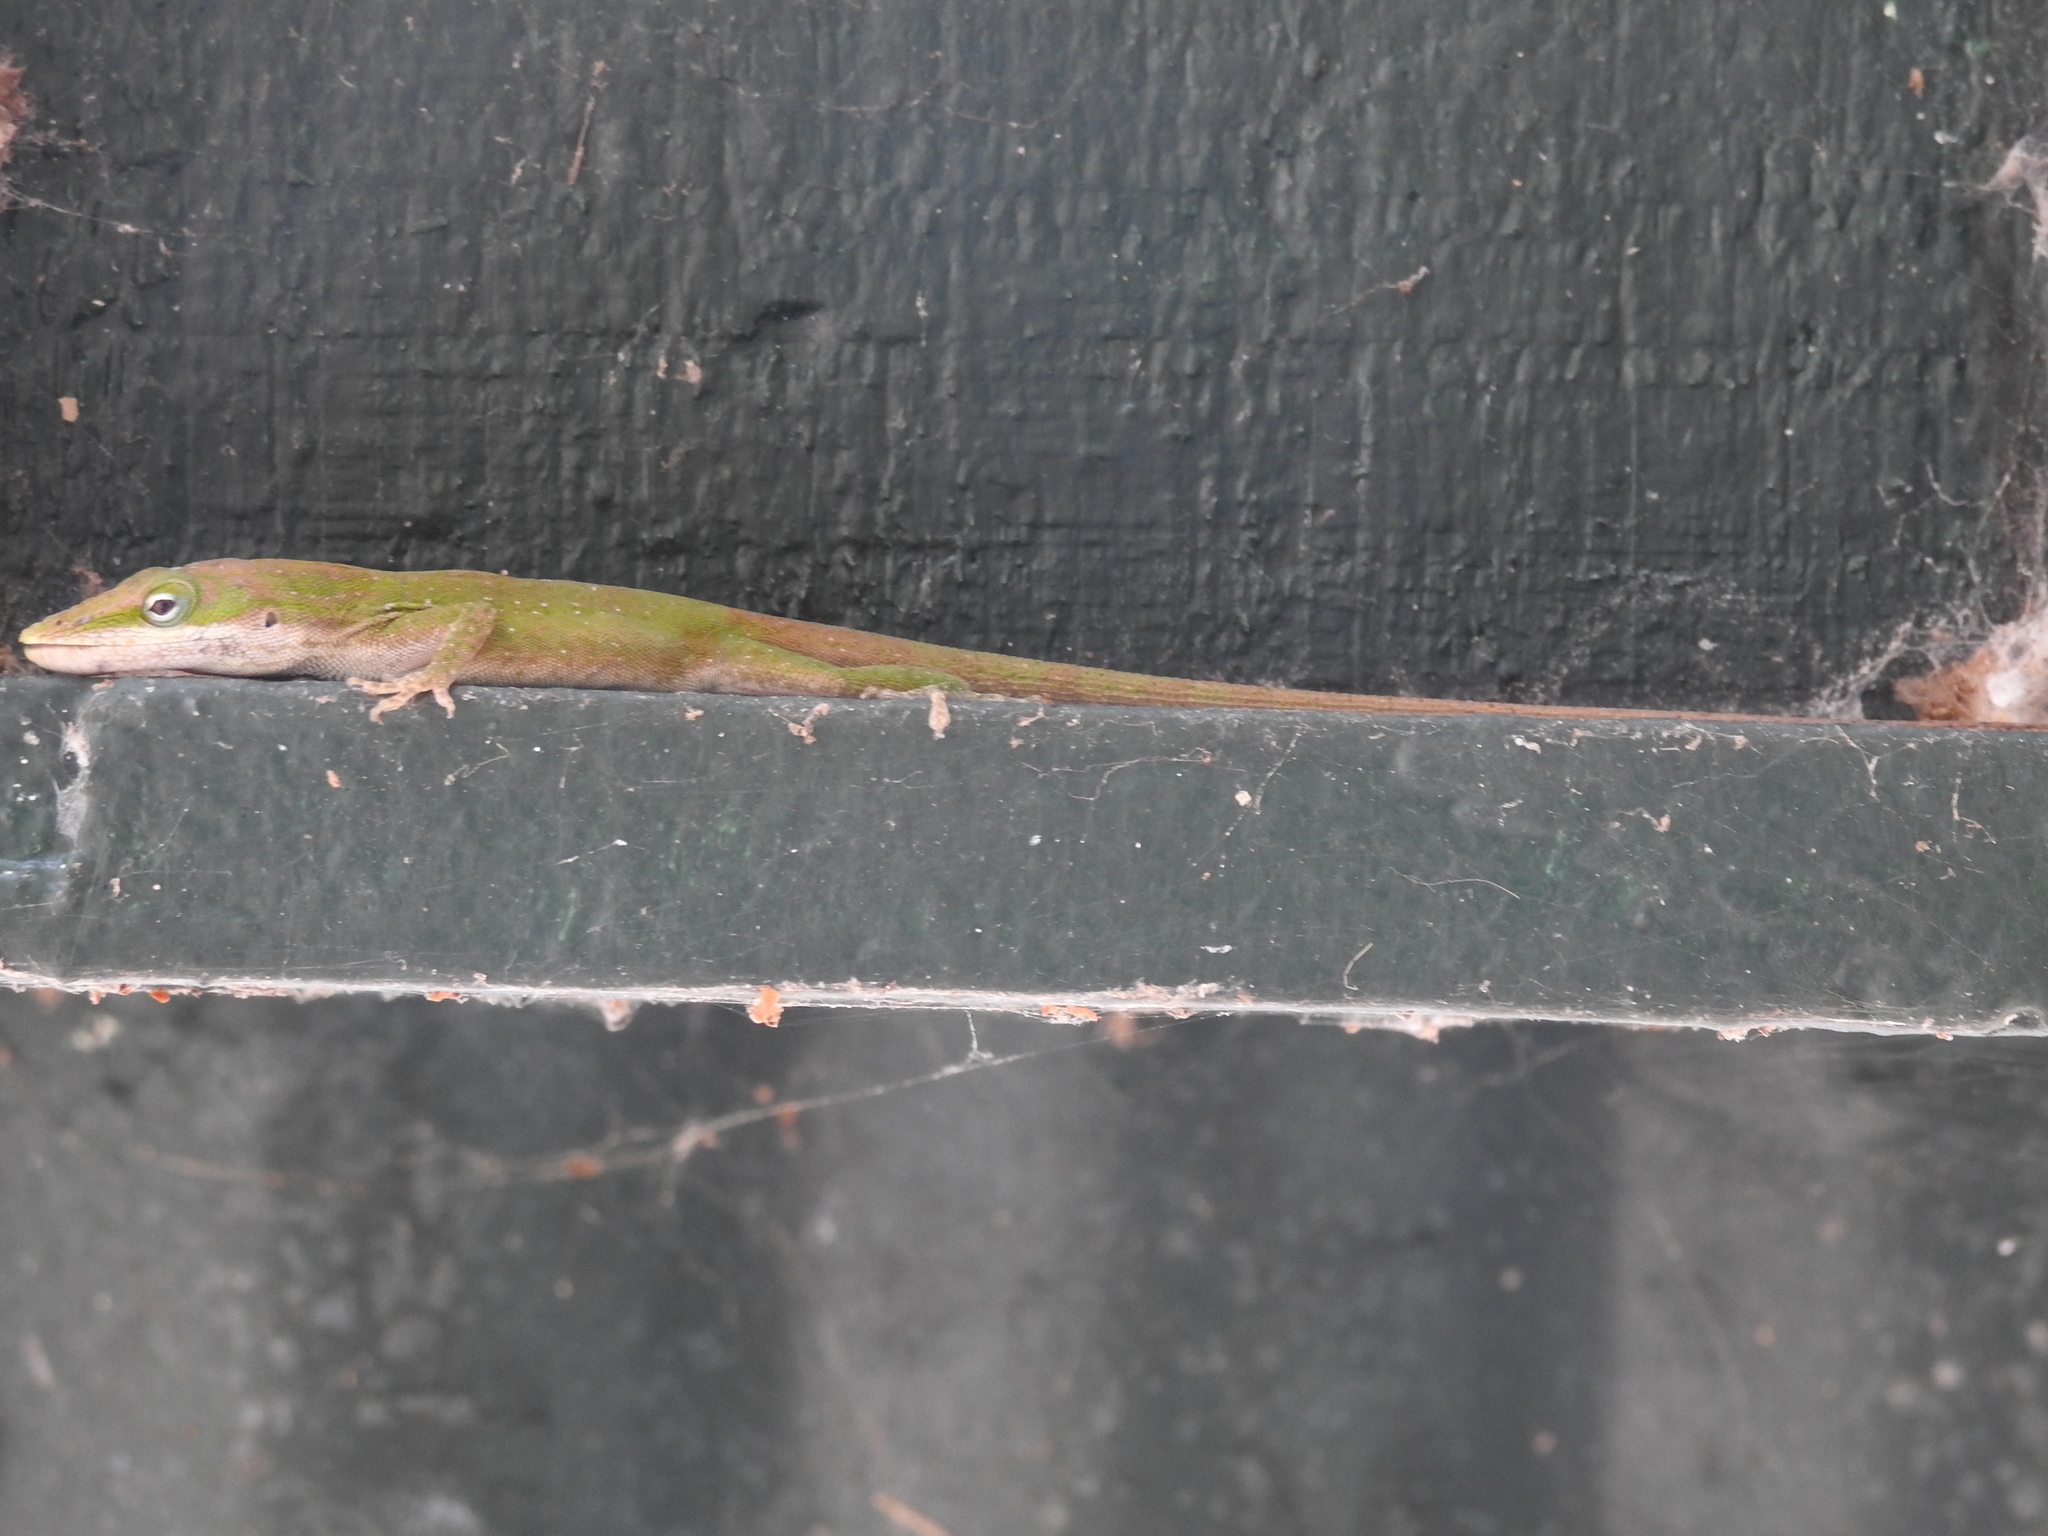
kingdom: Animalia
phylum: Chordata
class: Squamata
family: Dactyloidae
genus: Anolis
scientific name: Anolis carolinensis
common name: Green anole
